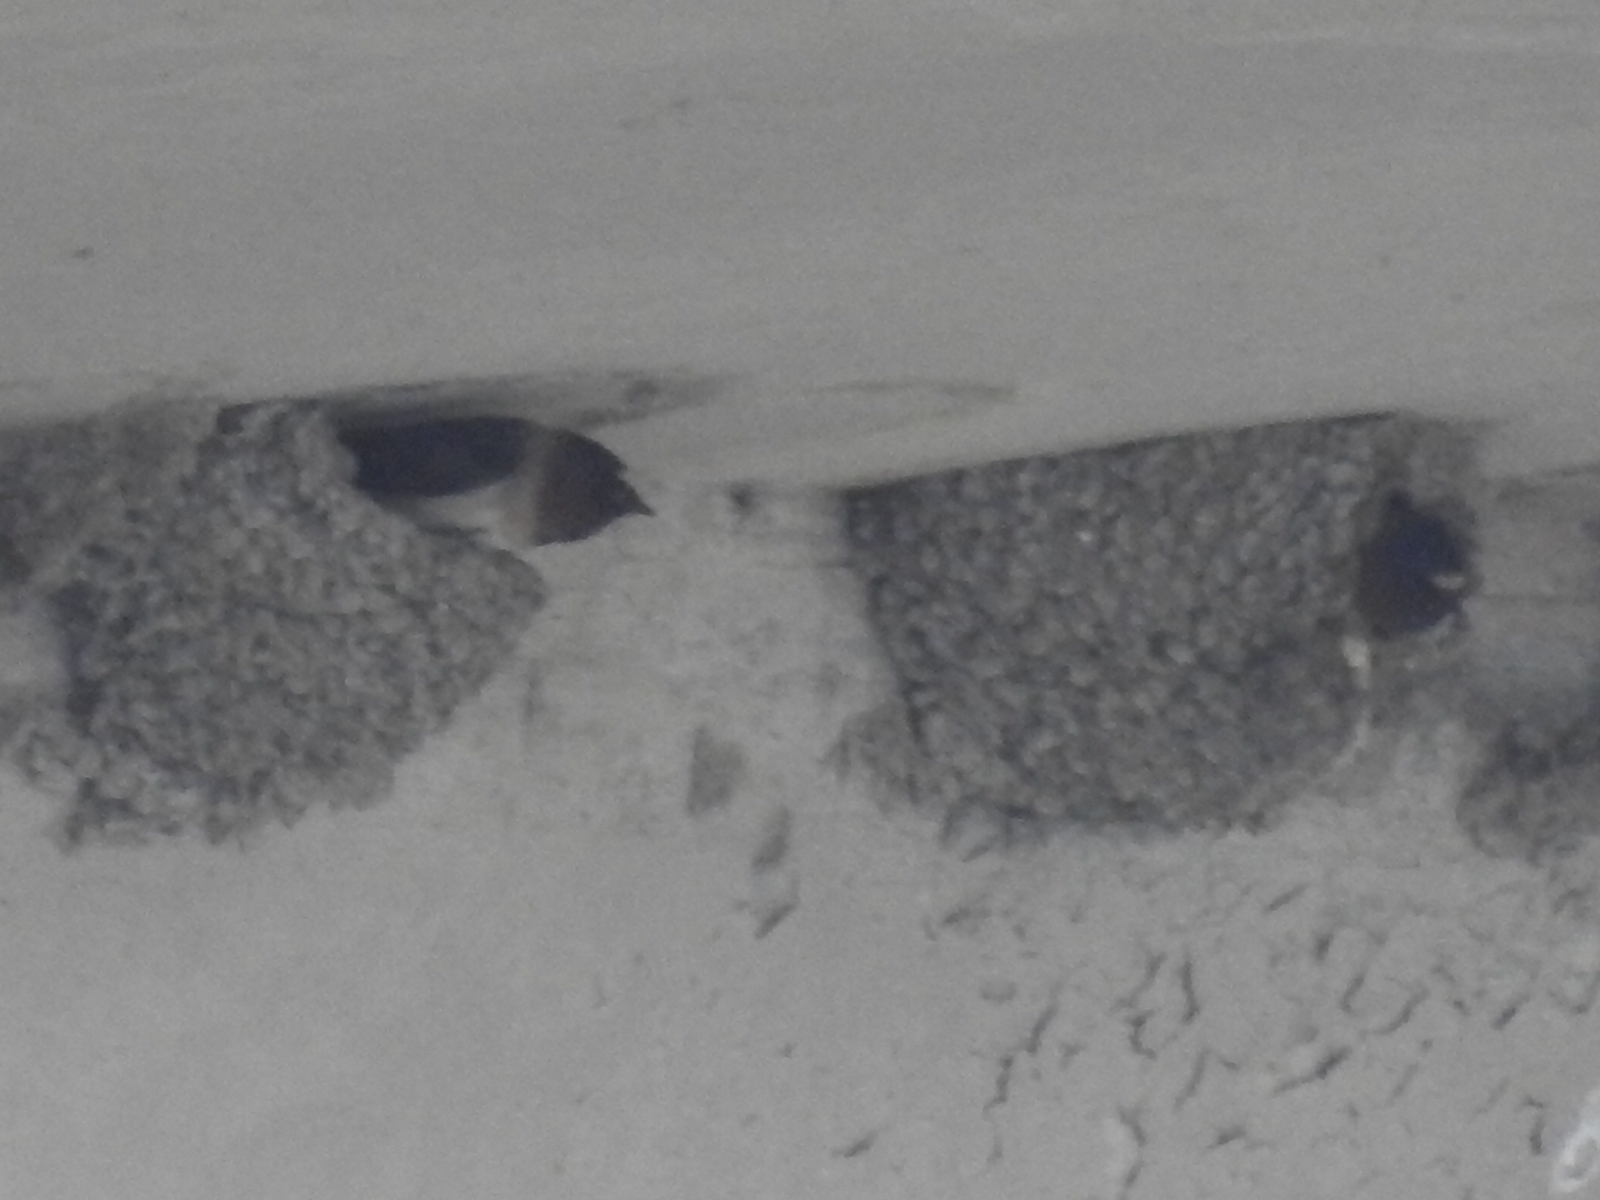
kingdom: Animalia
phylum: Chordata
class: Aves
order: Passeriformes
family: Hirundinidae
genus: Petrochelidon
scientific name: Petrochelidon pyrrhonota
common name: American cliff swallow
